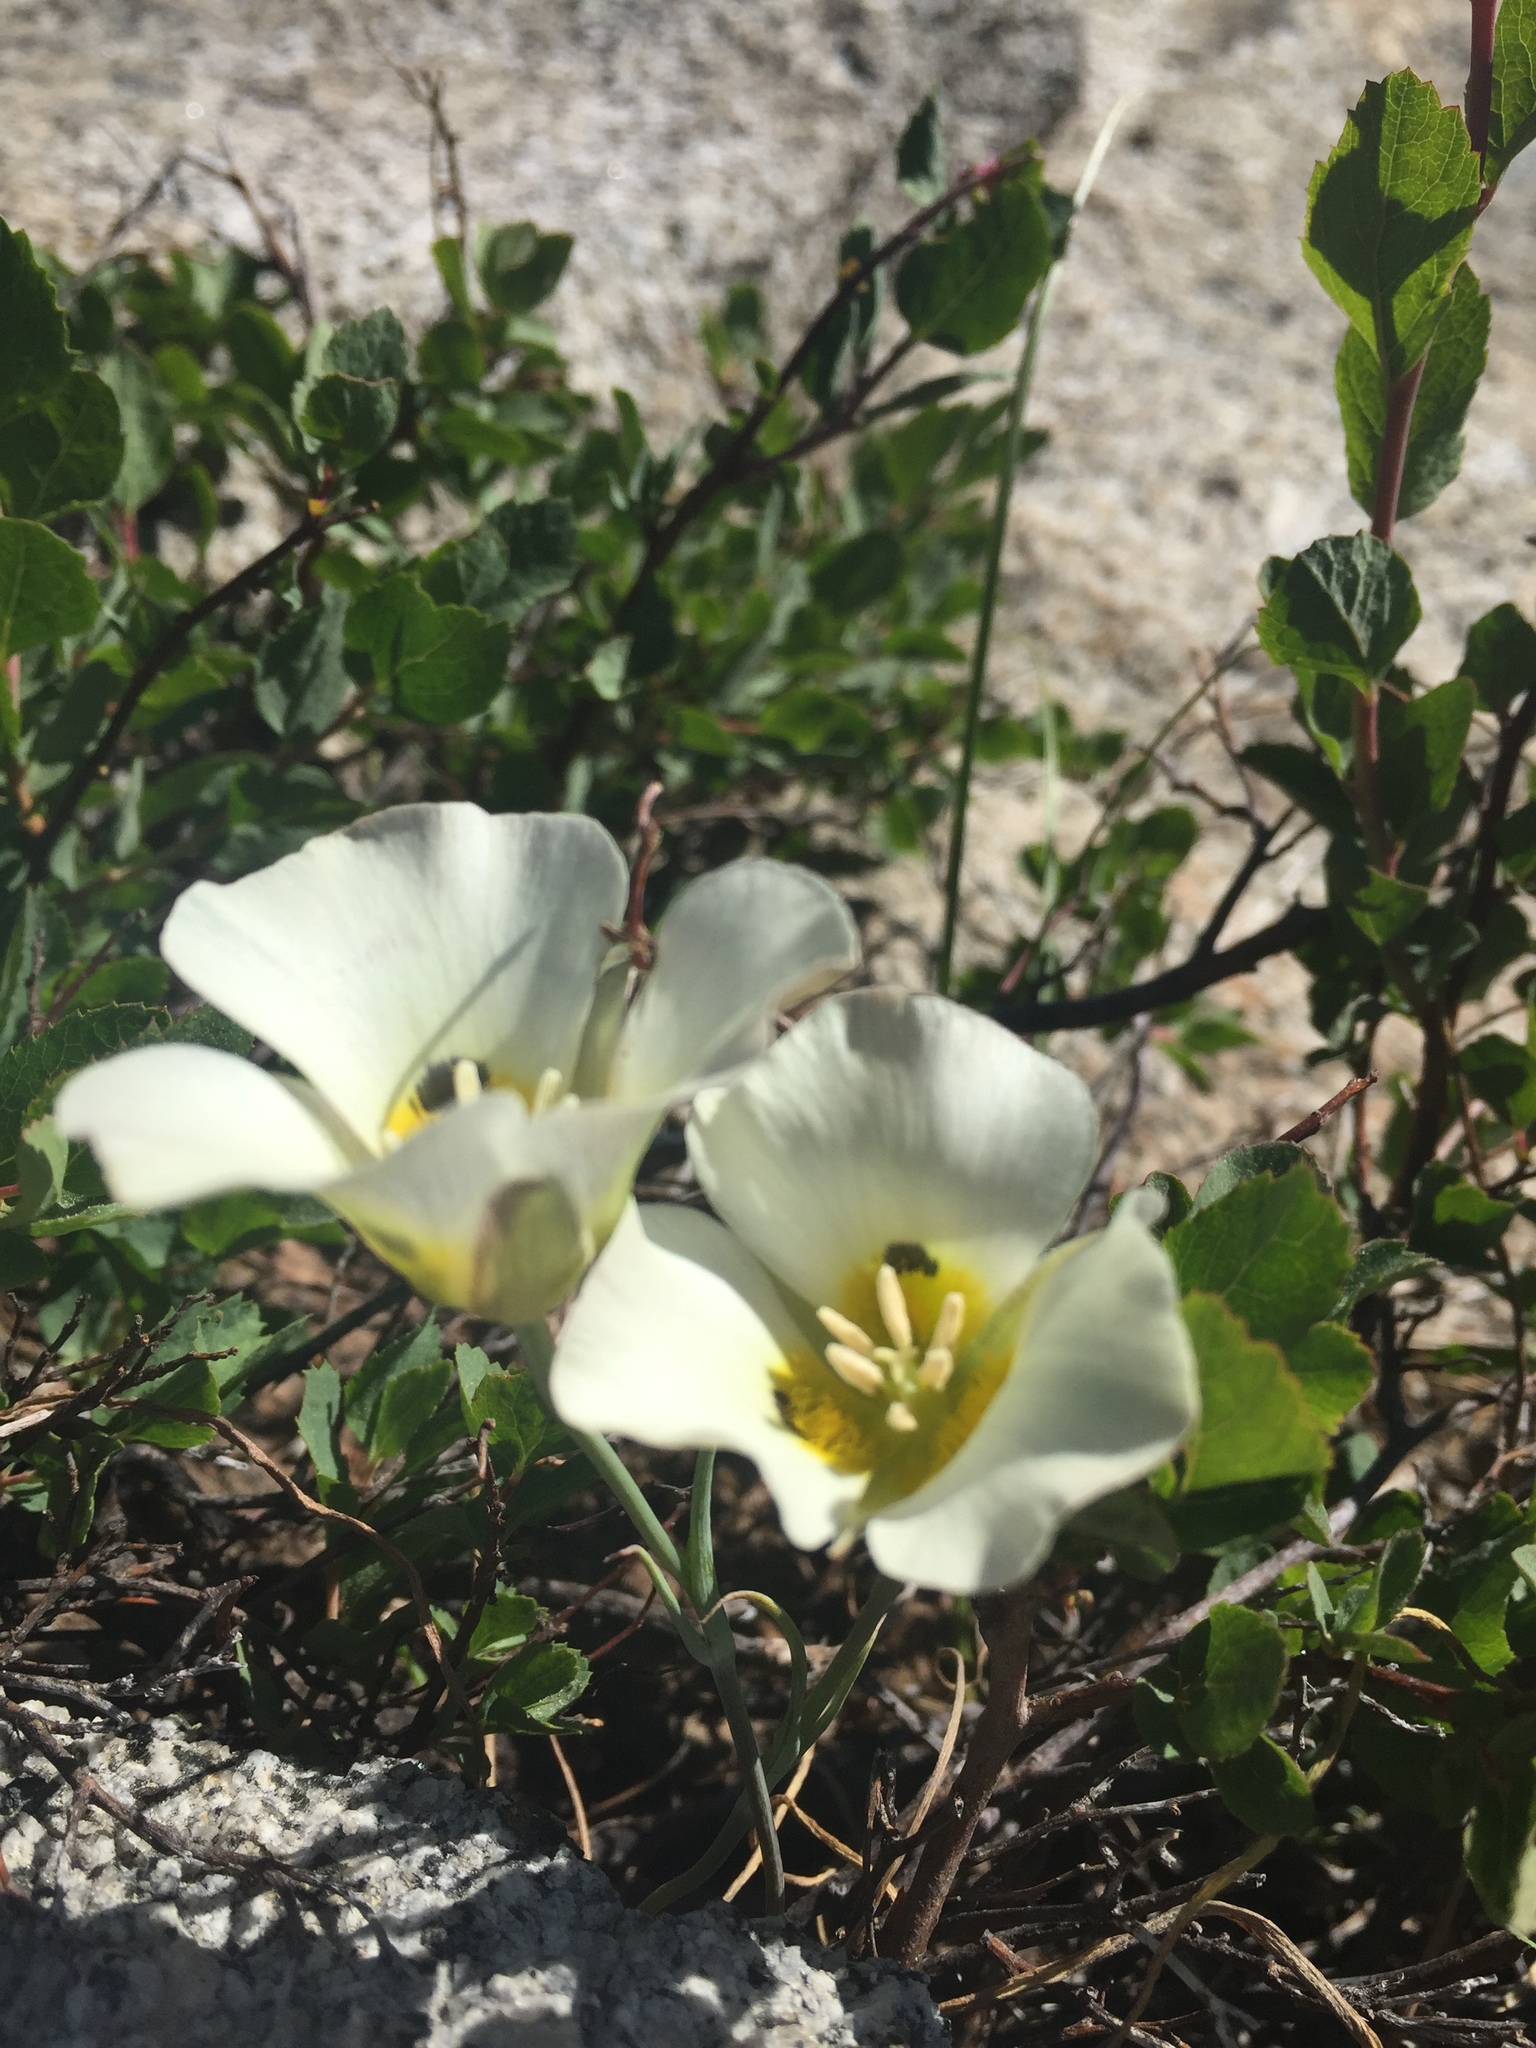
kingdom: Plantae
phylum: Tracheophyta
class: Liliopsida
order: Liliales
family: Liliaceae
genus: Calochortus
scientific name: Calochortus leichtlinii
